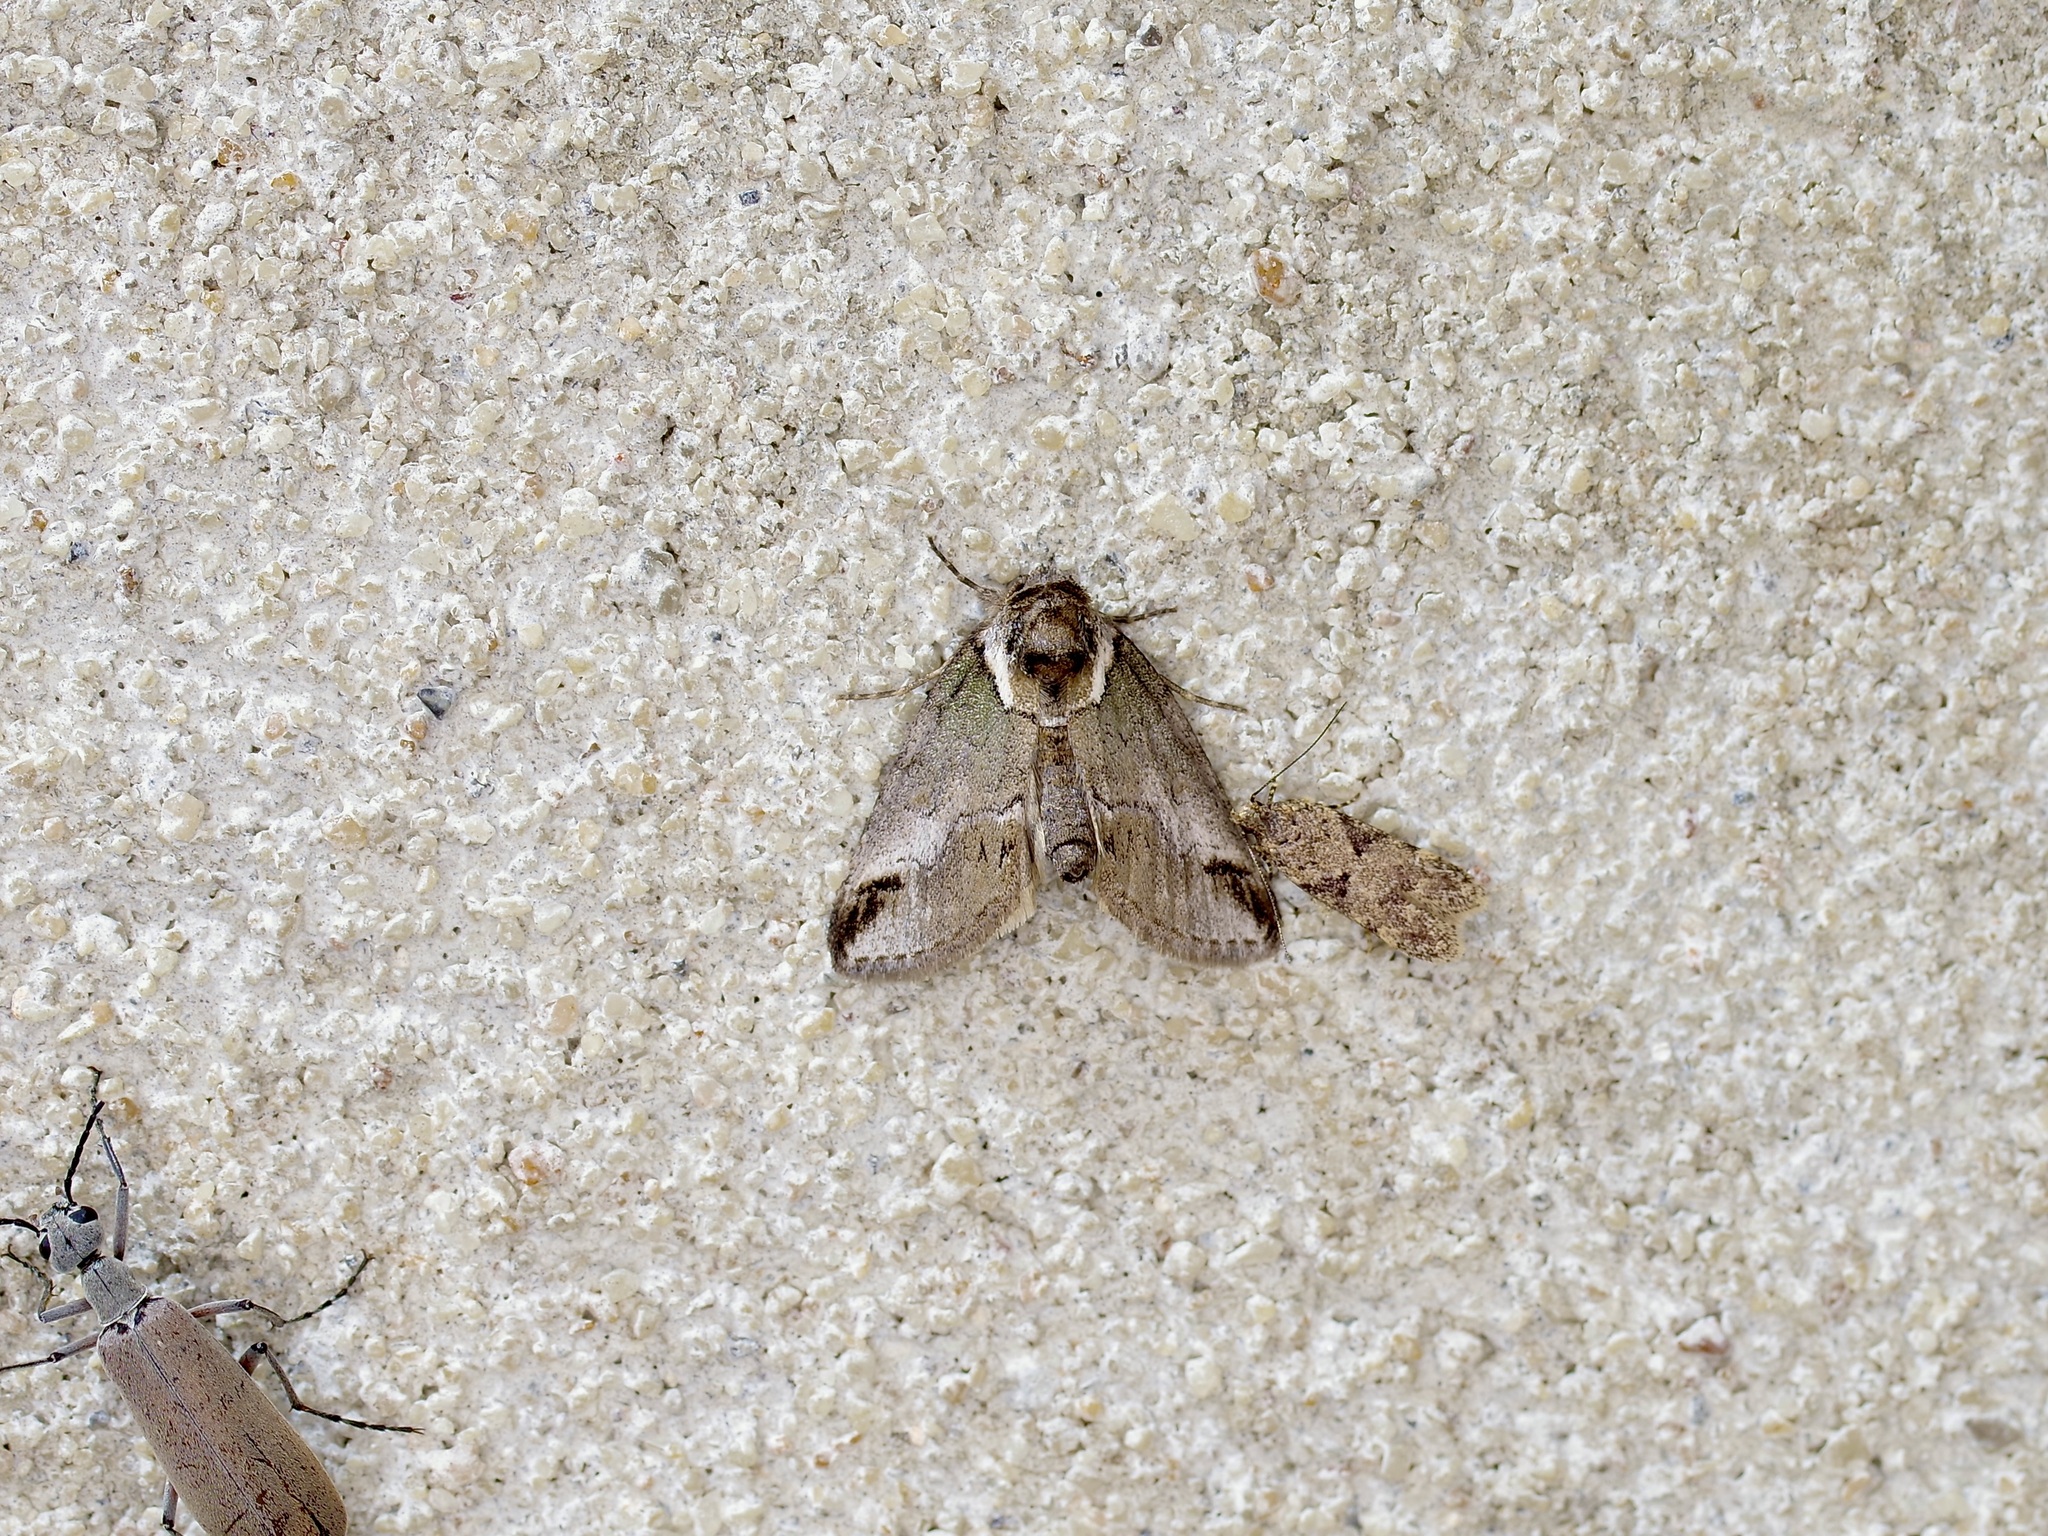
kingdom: Animalia
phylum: Arthropoda
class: Insecta
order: Lepidoptera
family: Nolidae
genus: Baileya
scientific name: Baileya australis
